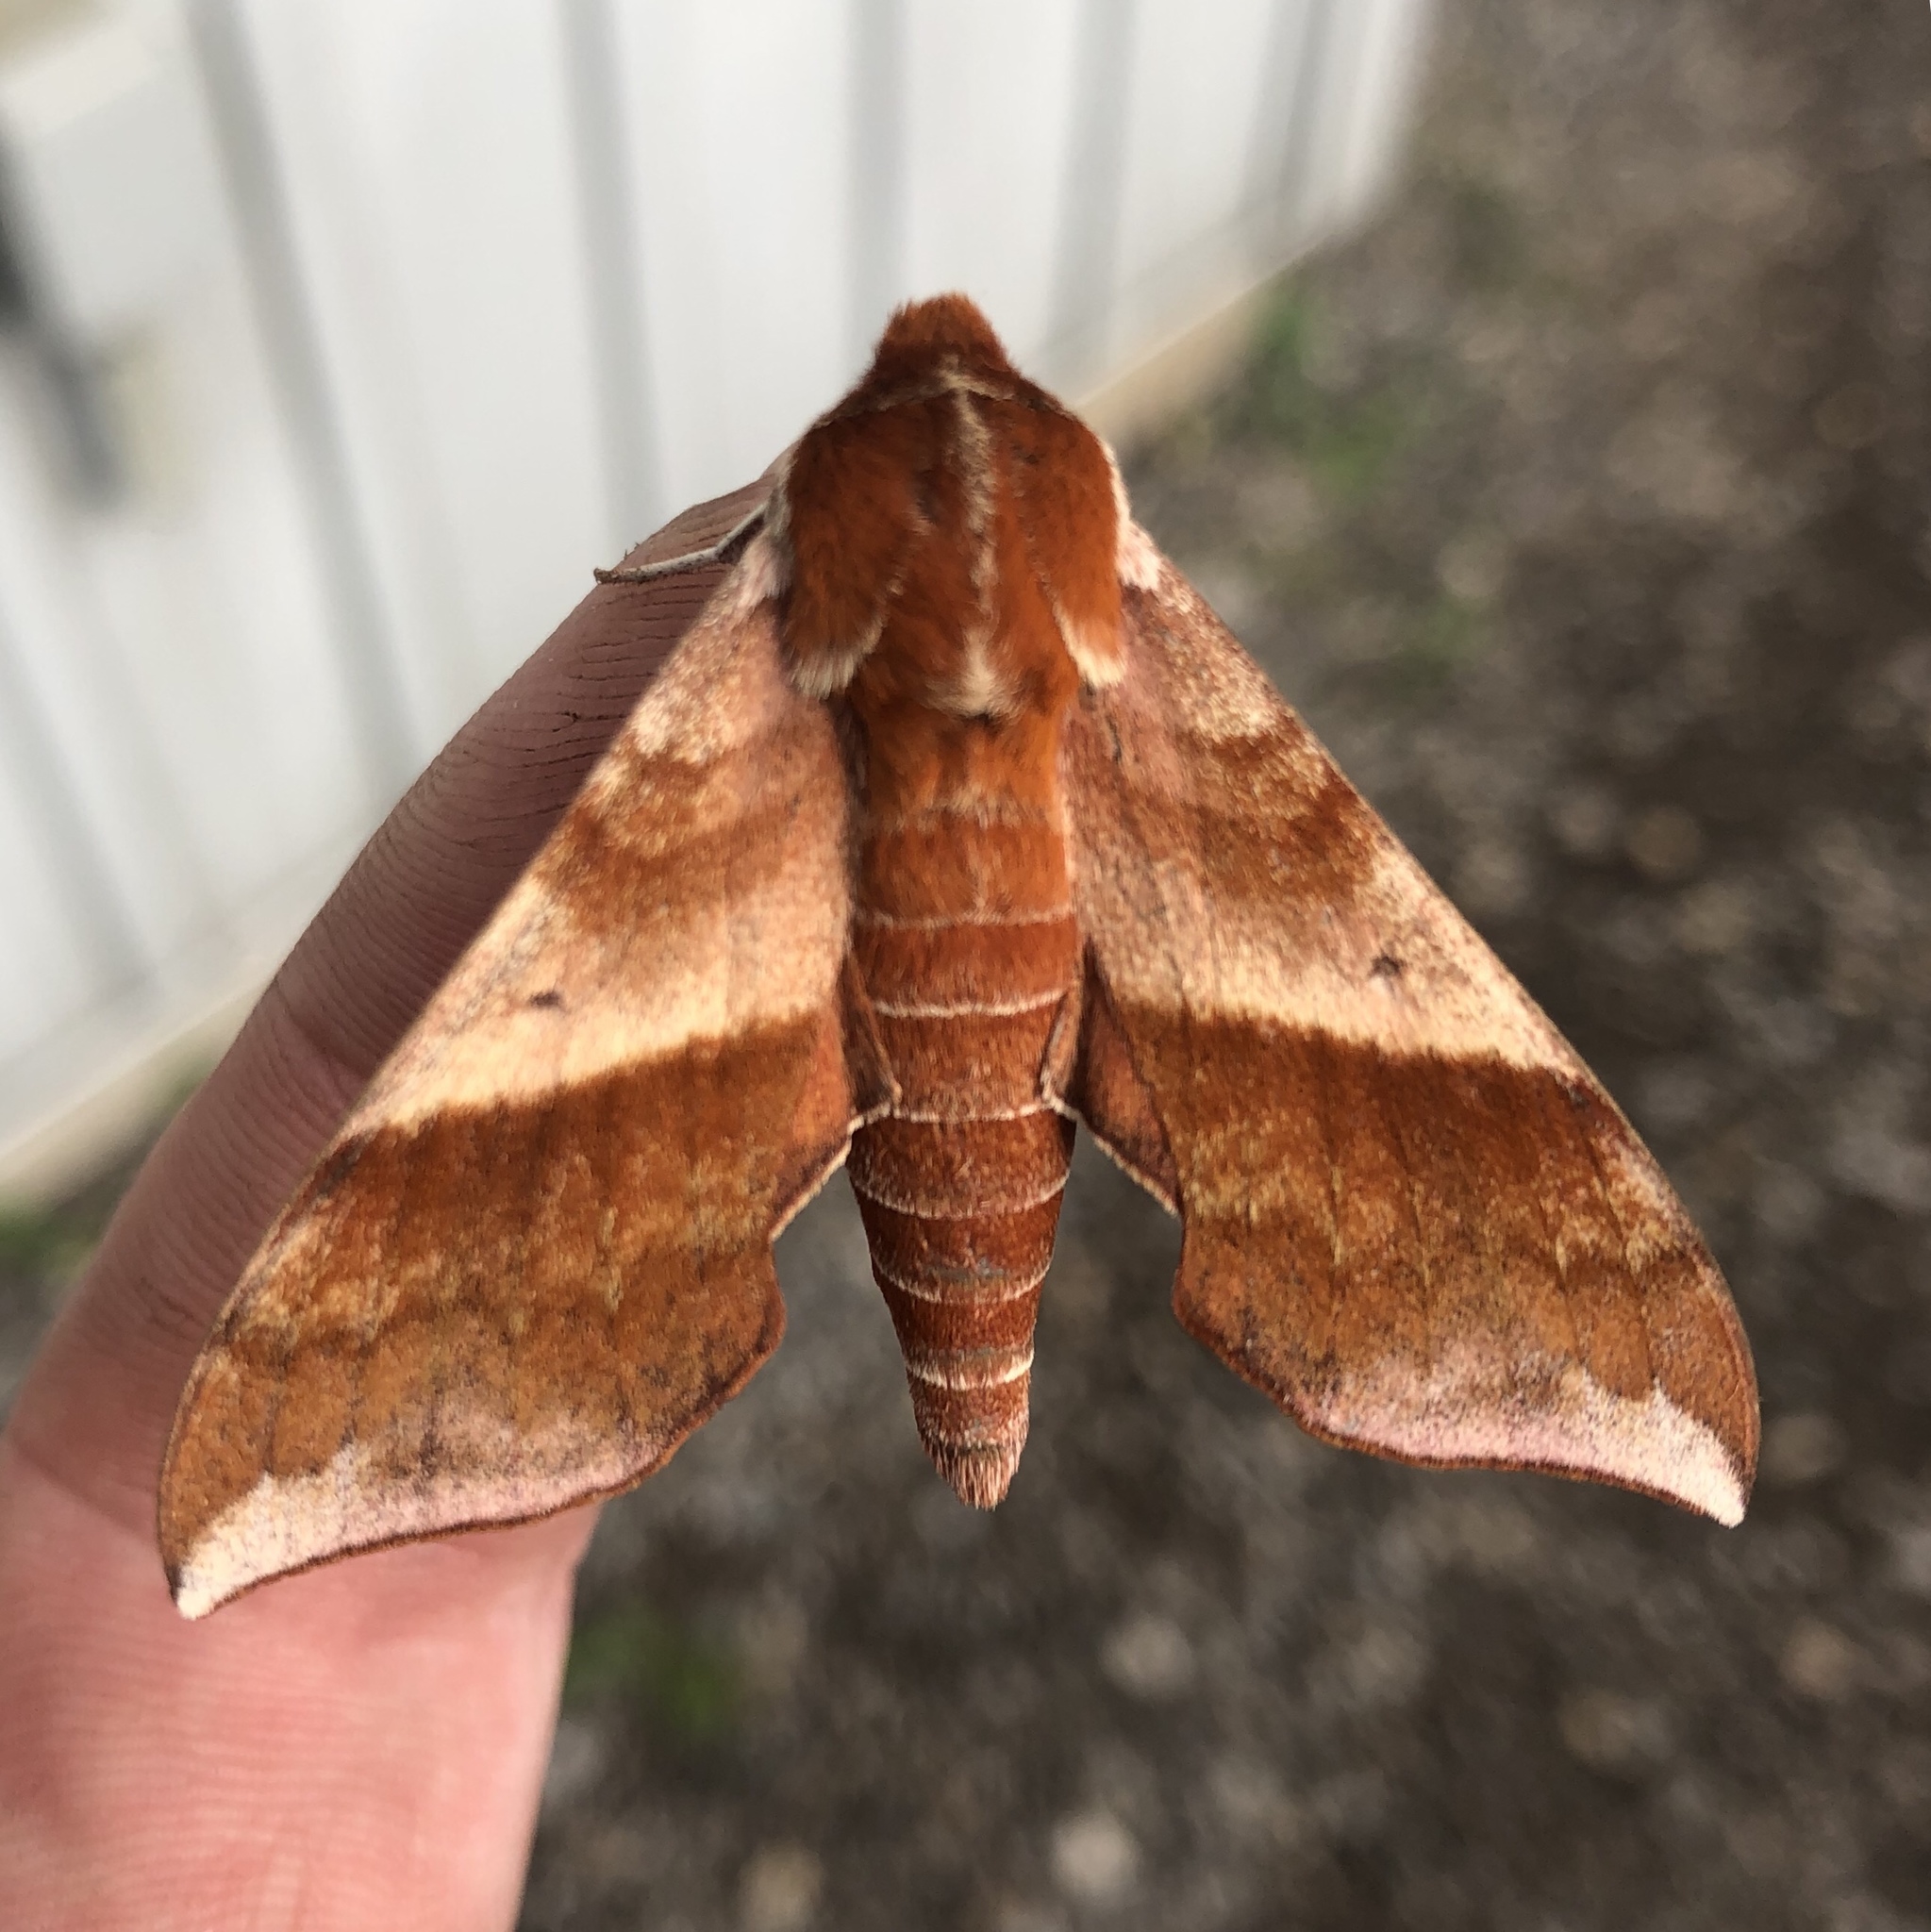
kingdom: Animalia
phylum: Arthropoda
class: Insecta
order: Lepidoptera
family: Sphingidae
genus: Darapsa
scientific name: Darapsa choerilus
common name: Azalea sphinx
